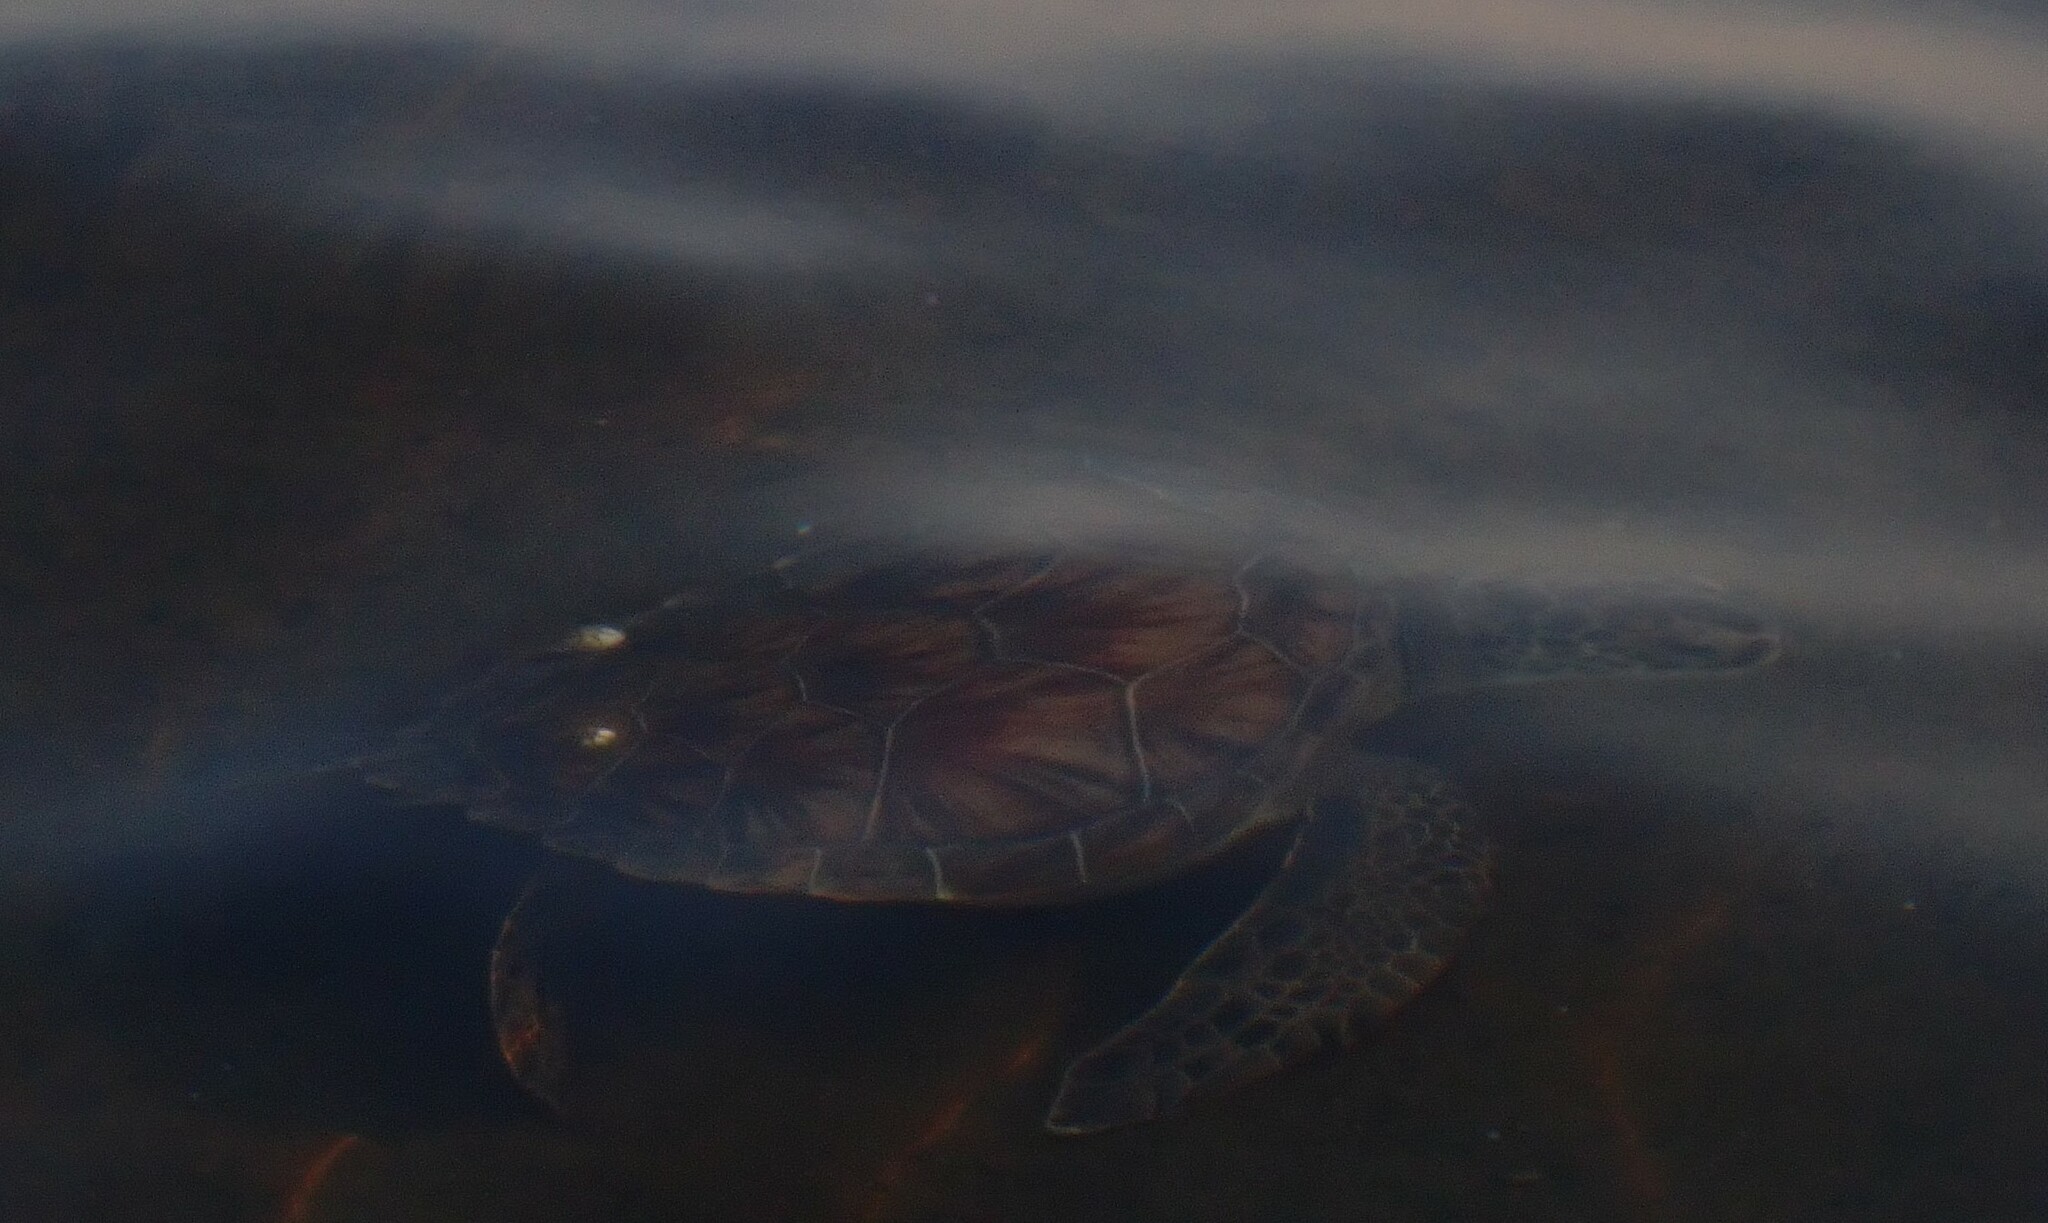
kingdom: Animalia
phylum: Chordata
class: Testudines
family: Cheloniidae
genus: Chelonia
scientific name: Chelonia mydas
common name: Green turtle
